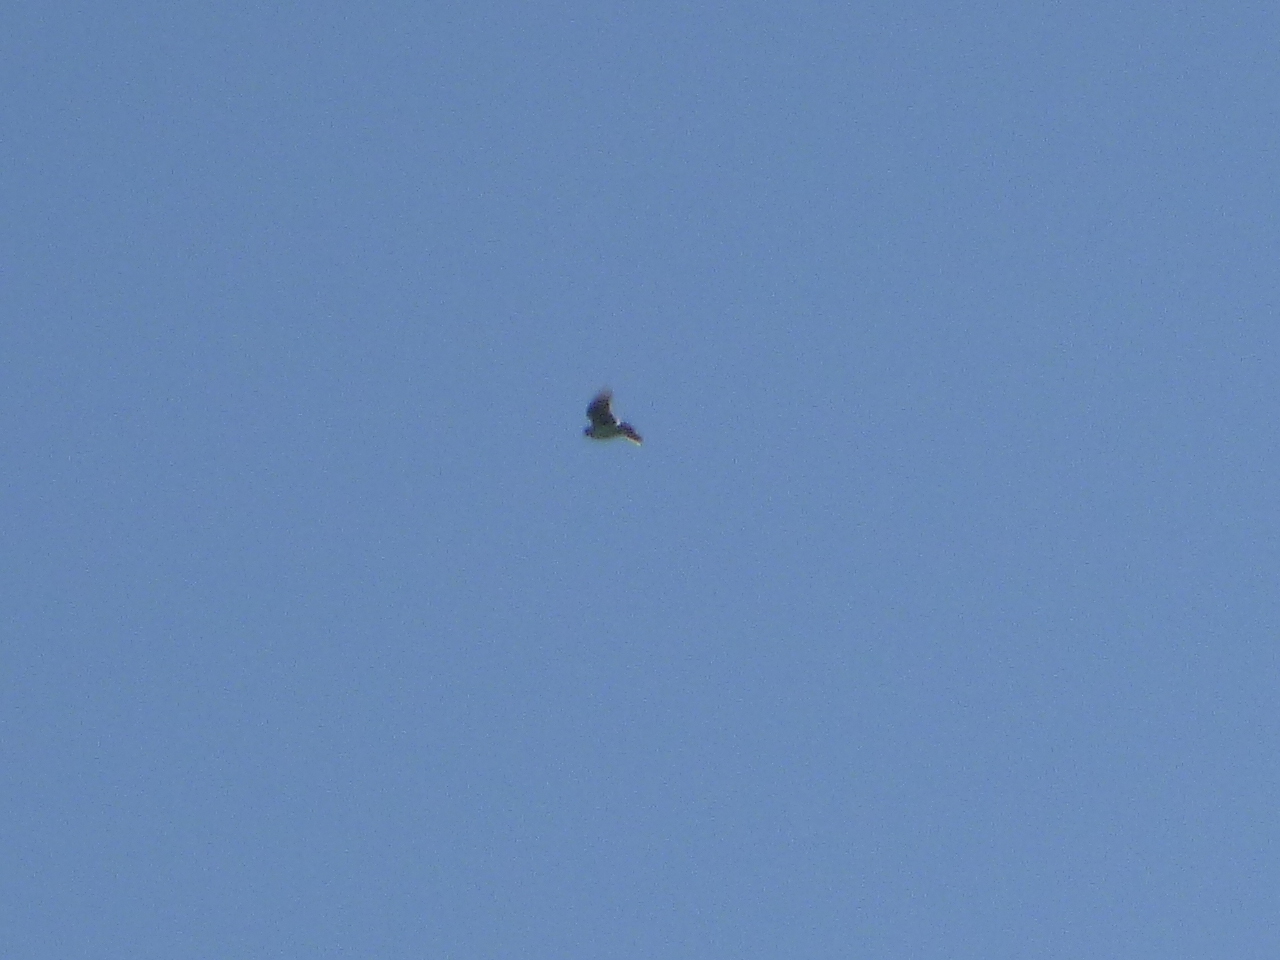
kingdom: Animalia
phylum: Chordata
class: Aves
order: Passeriformes
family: Alaudidae
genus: Alauda
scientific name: Alauda arvensis
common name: Eurasian skylark
